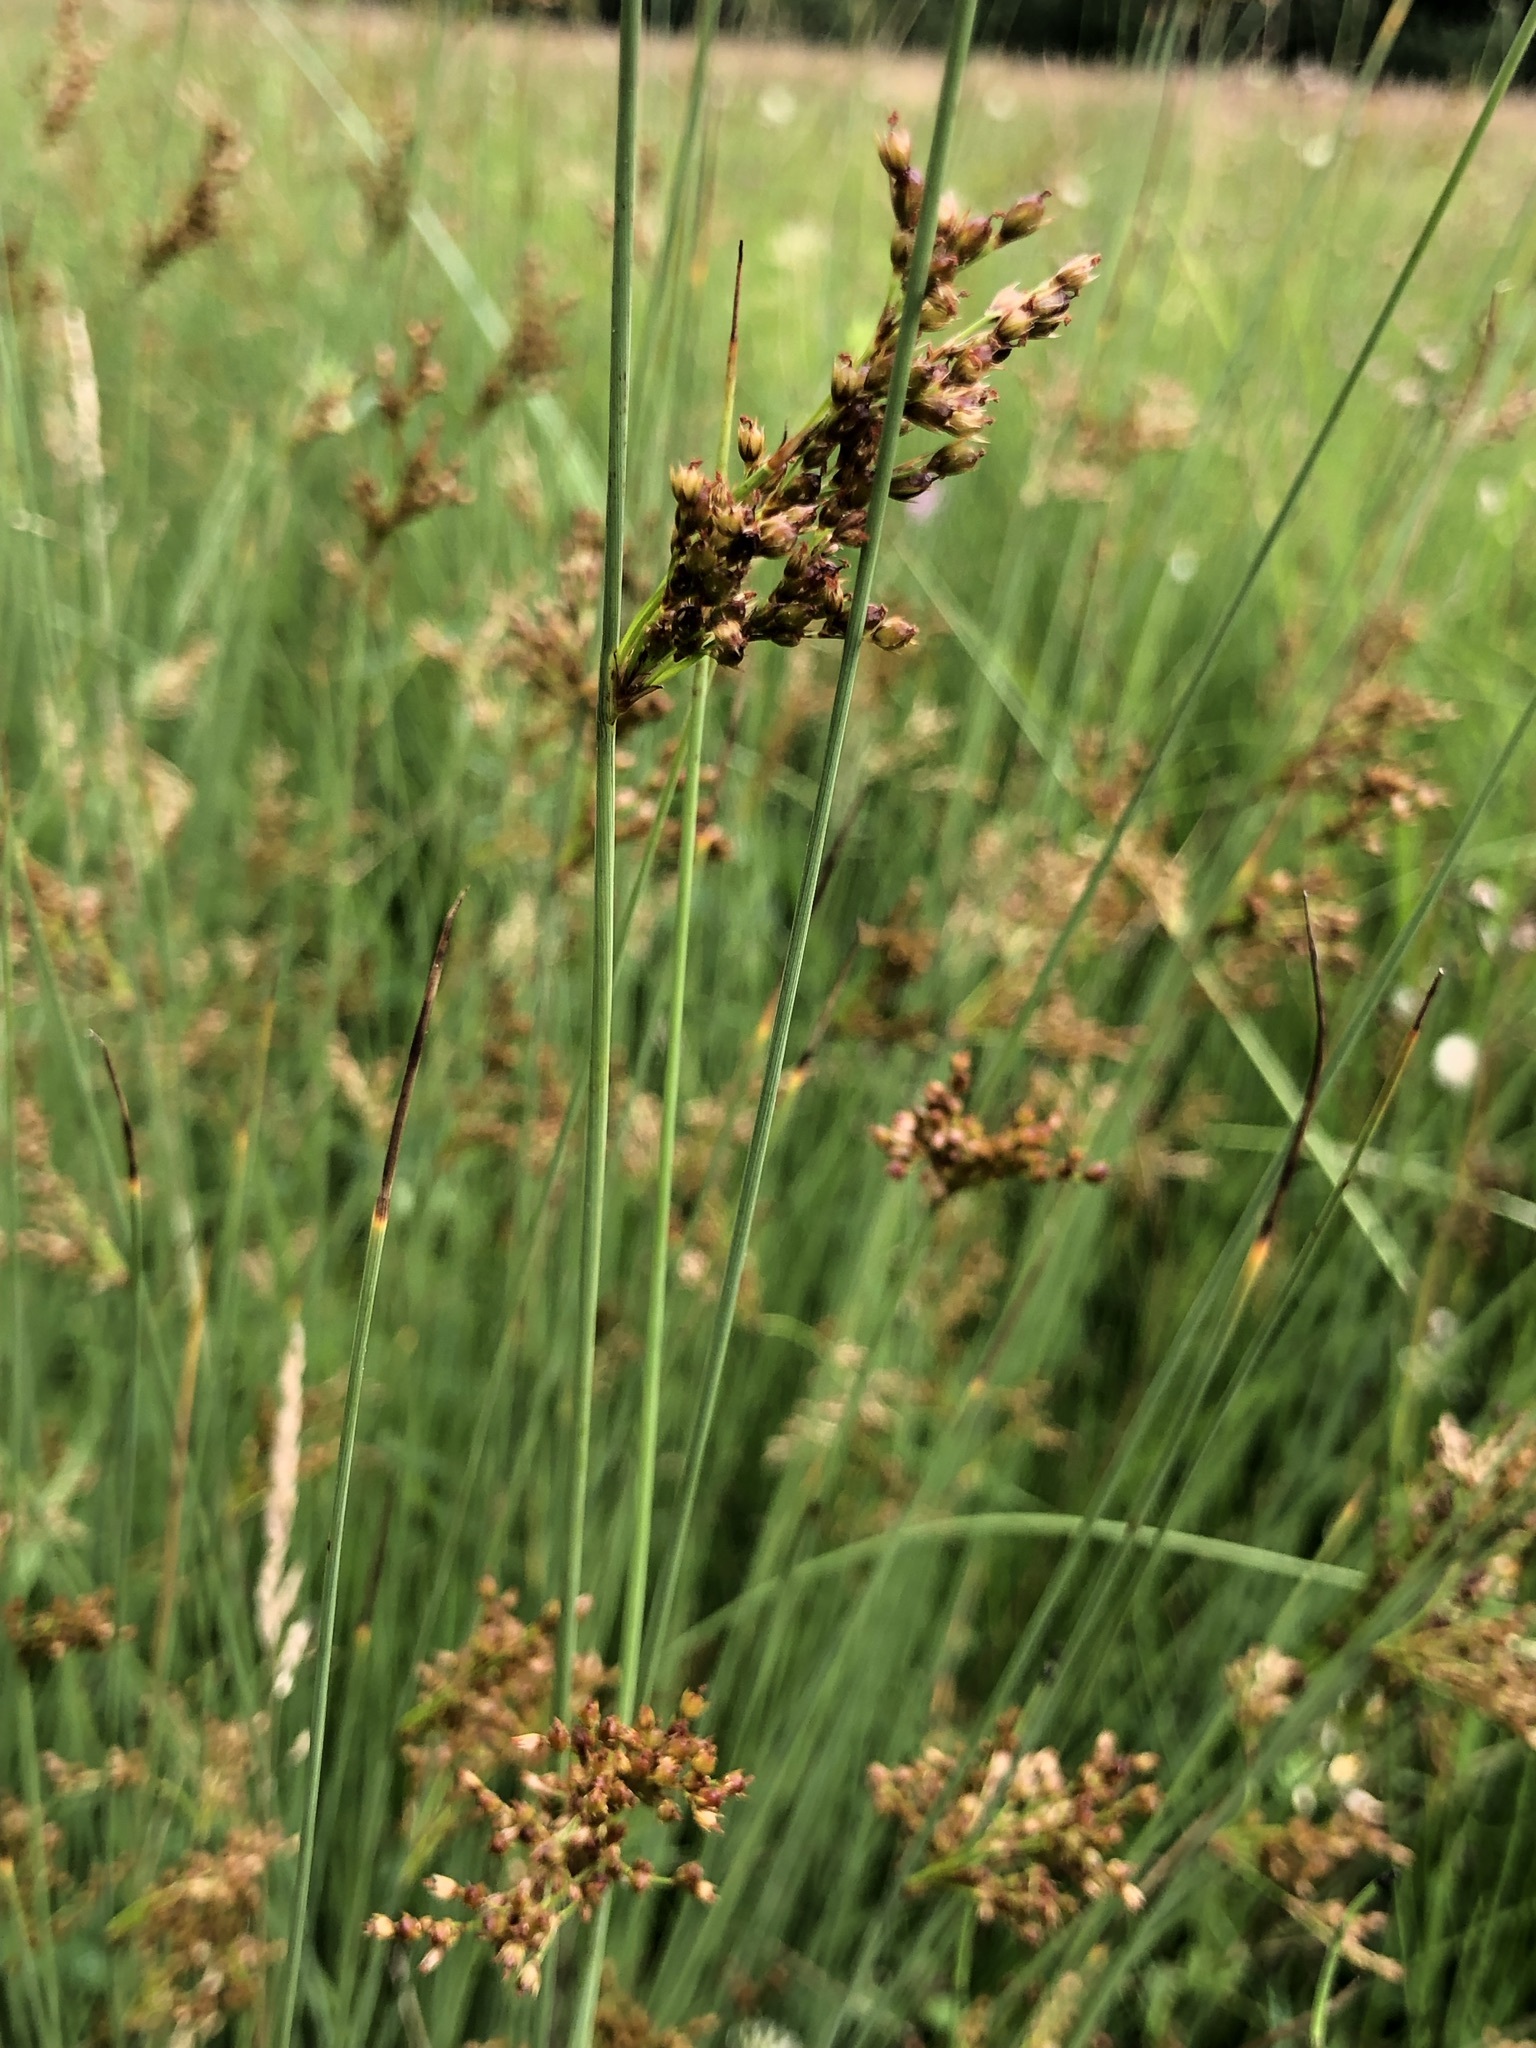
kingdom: Plantae
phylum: Tracheophyta
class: Liliopsida
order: Poales
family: Juncaceae
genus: Juncus
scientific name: Juncus inflexus
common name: Hard rush
